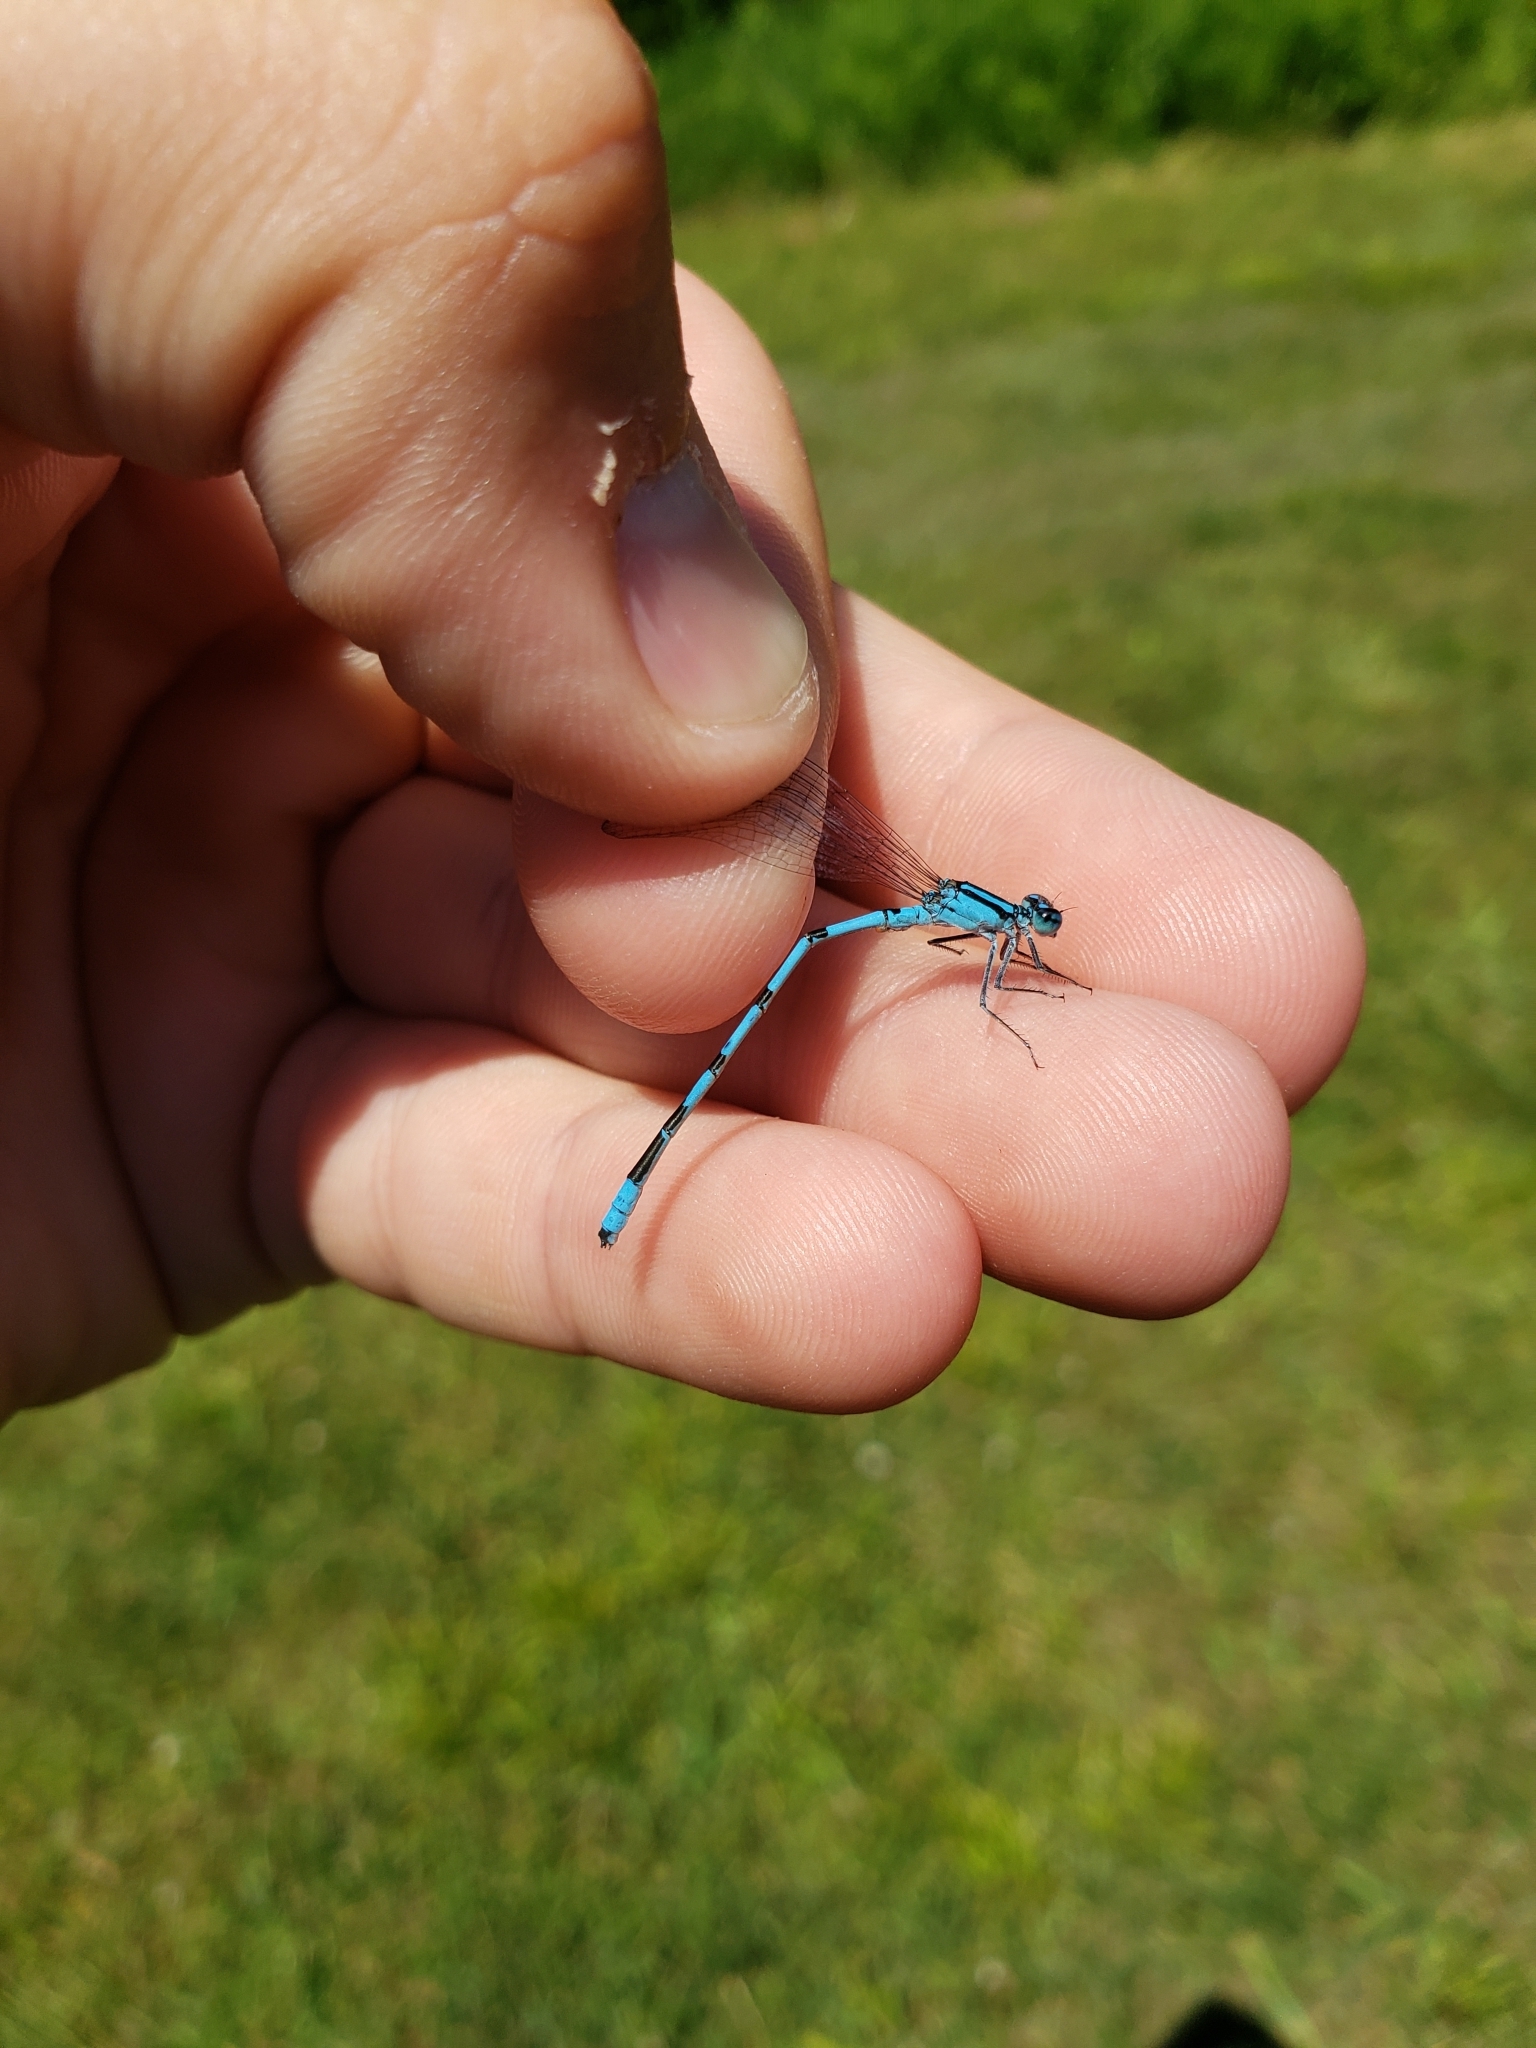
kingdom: Animalia
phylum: Arthropoda
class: Insecta
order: Odonata
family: Coenagrionidae
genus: Enallagma
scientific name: Enallagma ebrium
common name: Marsh bluet
